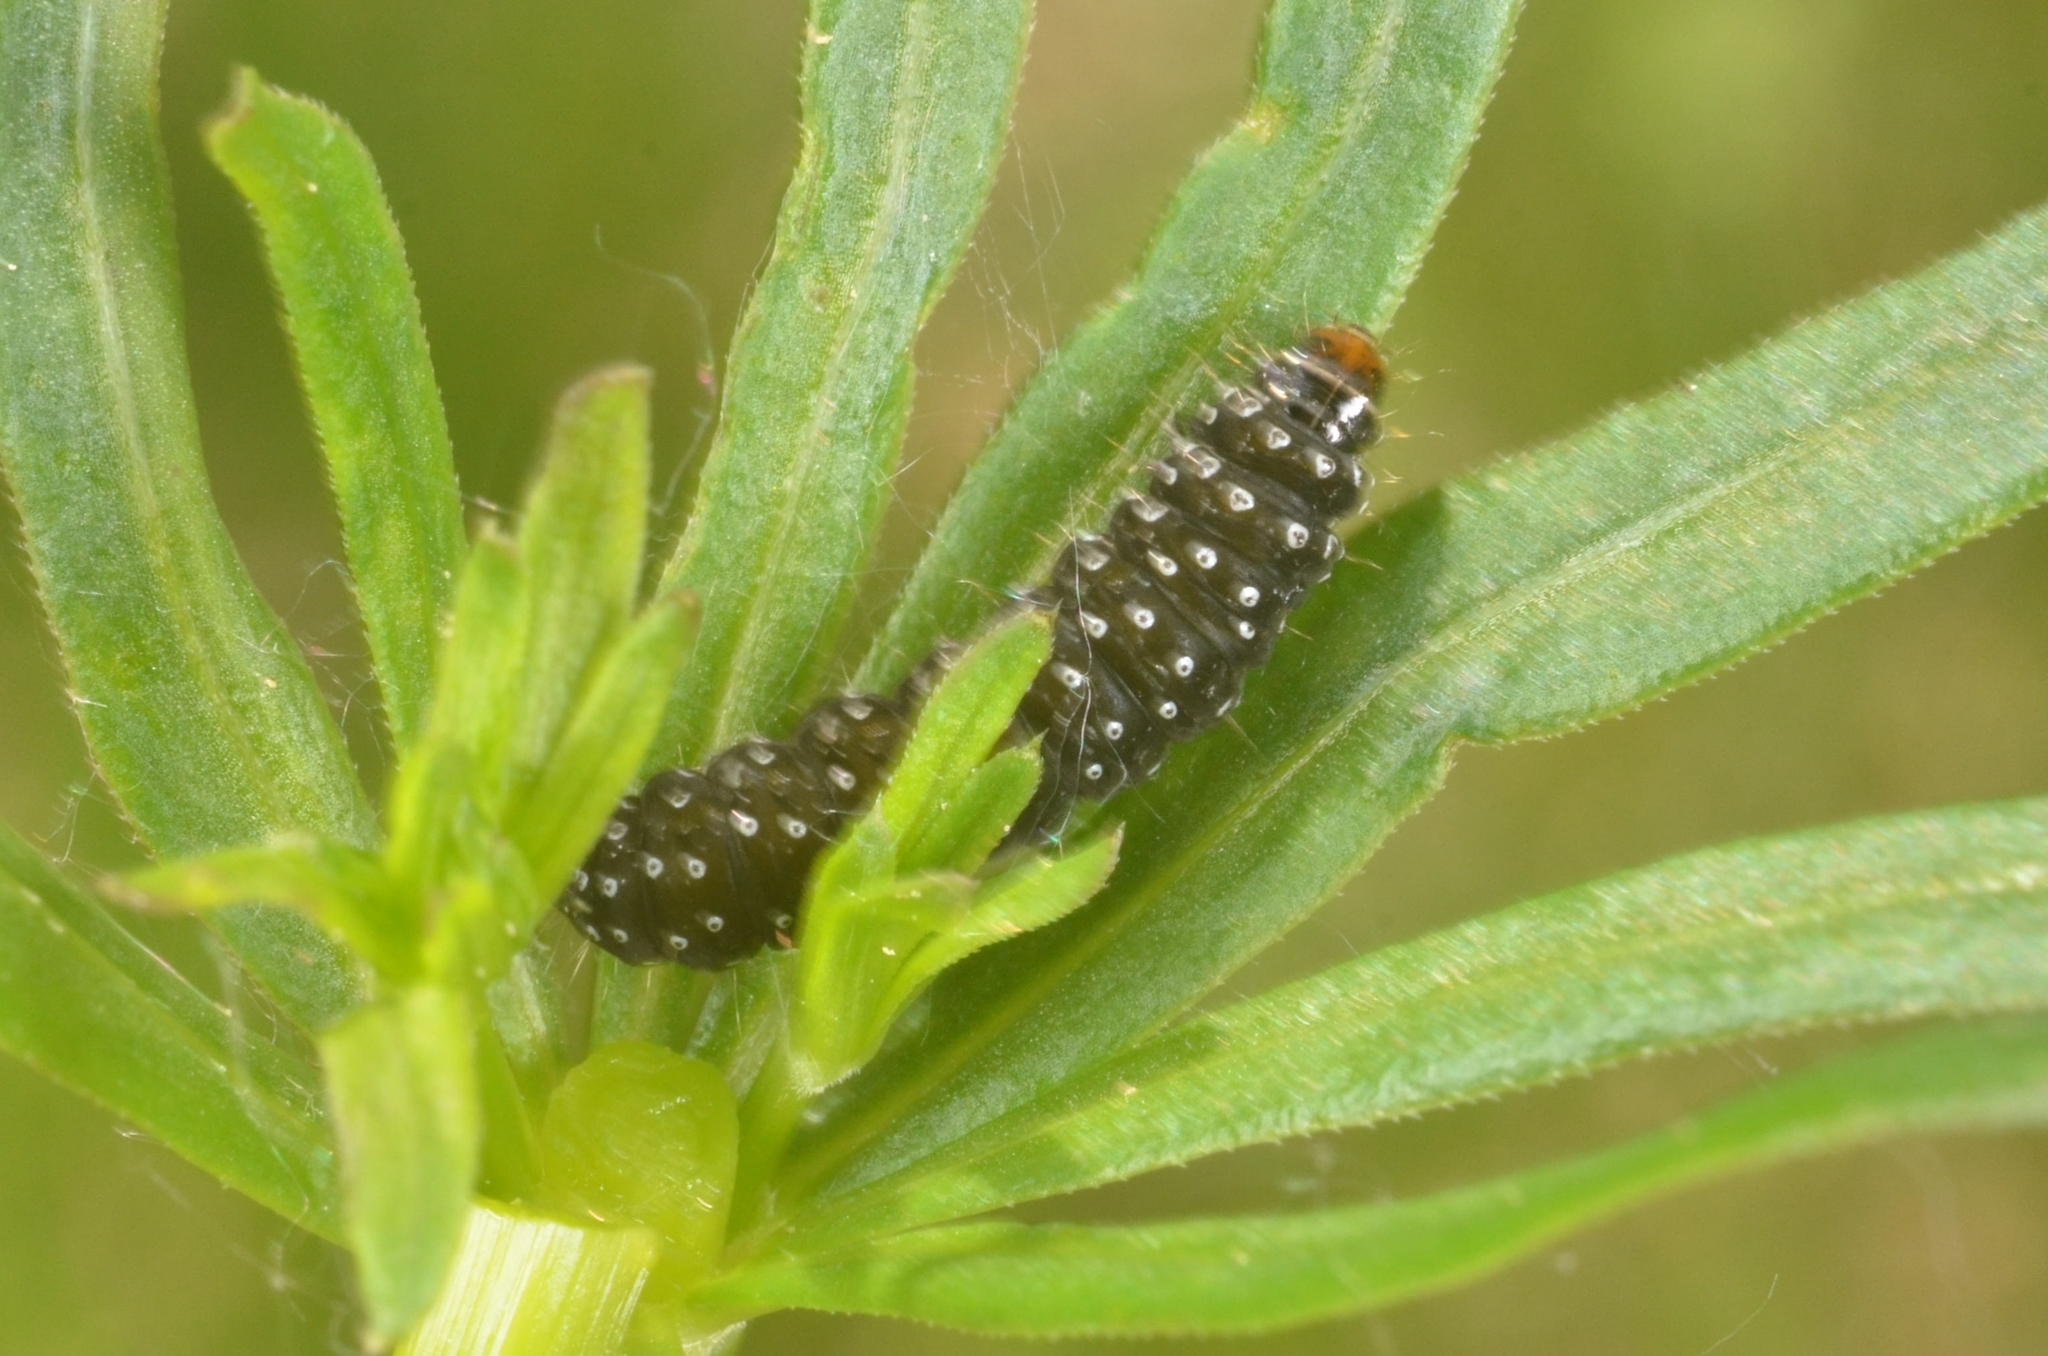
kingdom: Animalia
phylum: Arthropoda
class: Insecta
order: Lepidoptera
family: Tortricidae
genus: Aphelia
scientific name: Aphelia Zelotherses paleana
